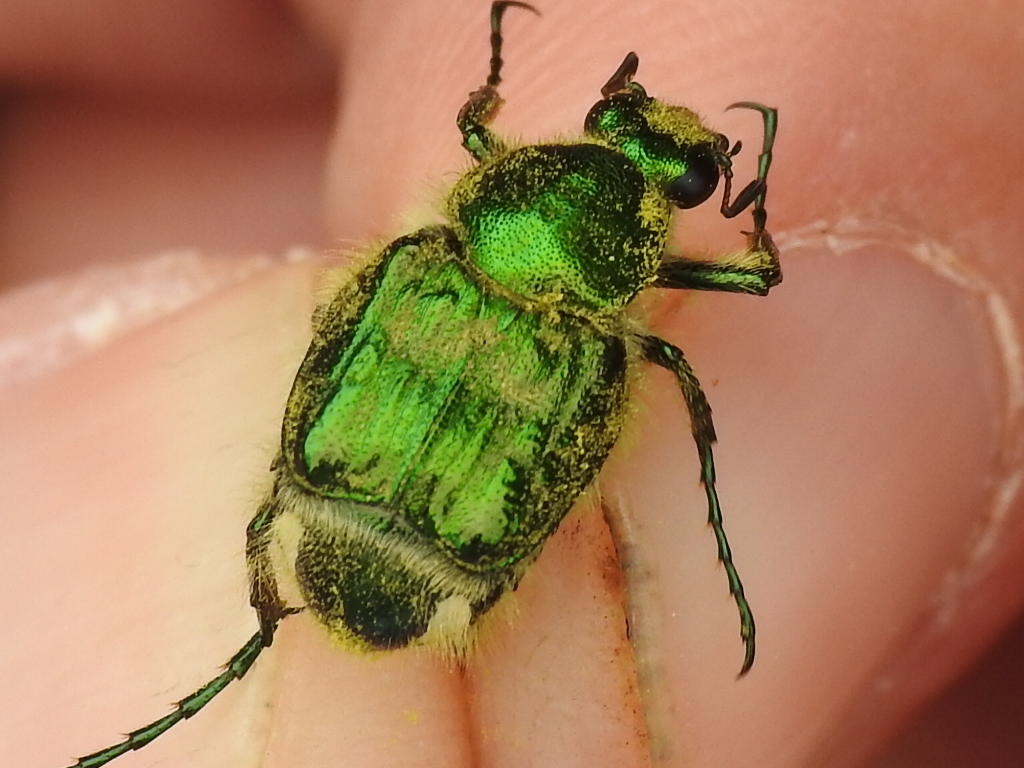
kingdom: Animalia
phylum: Arthropoda
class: Insecta
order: Coleoptera
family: Scarabaeidae
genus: Trichiotinus
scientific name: Trichiotinus lunulatus
